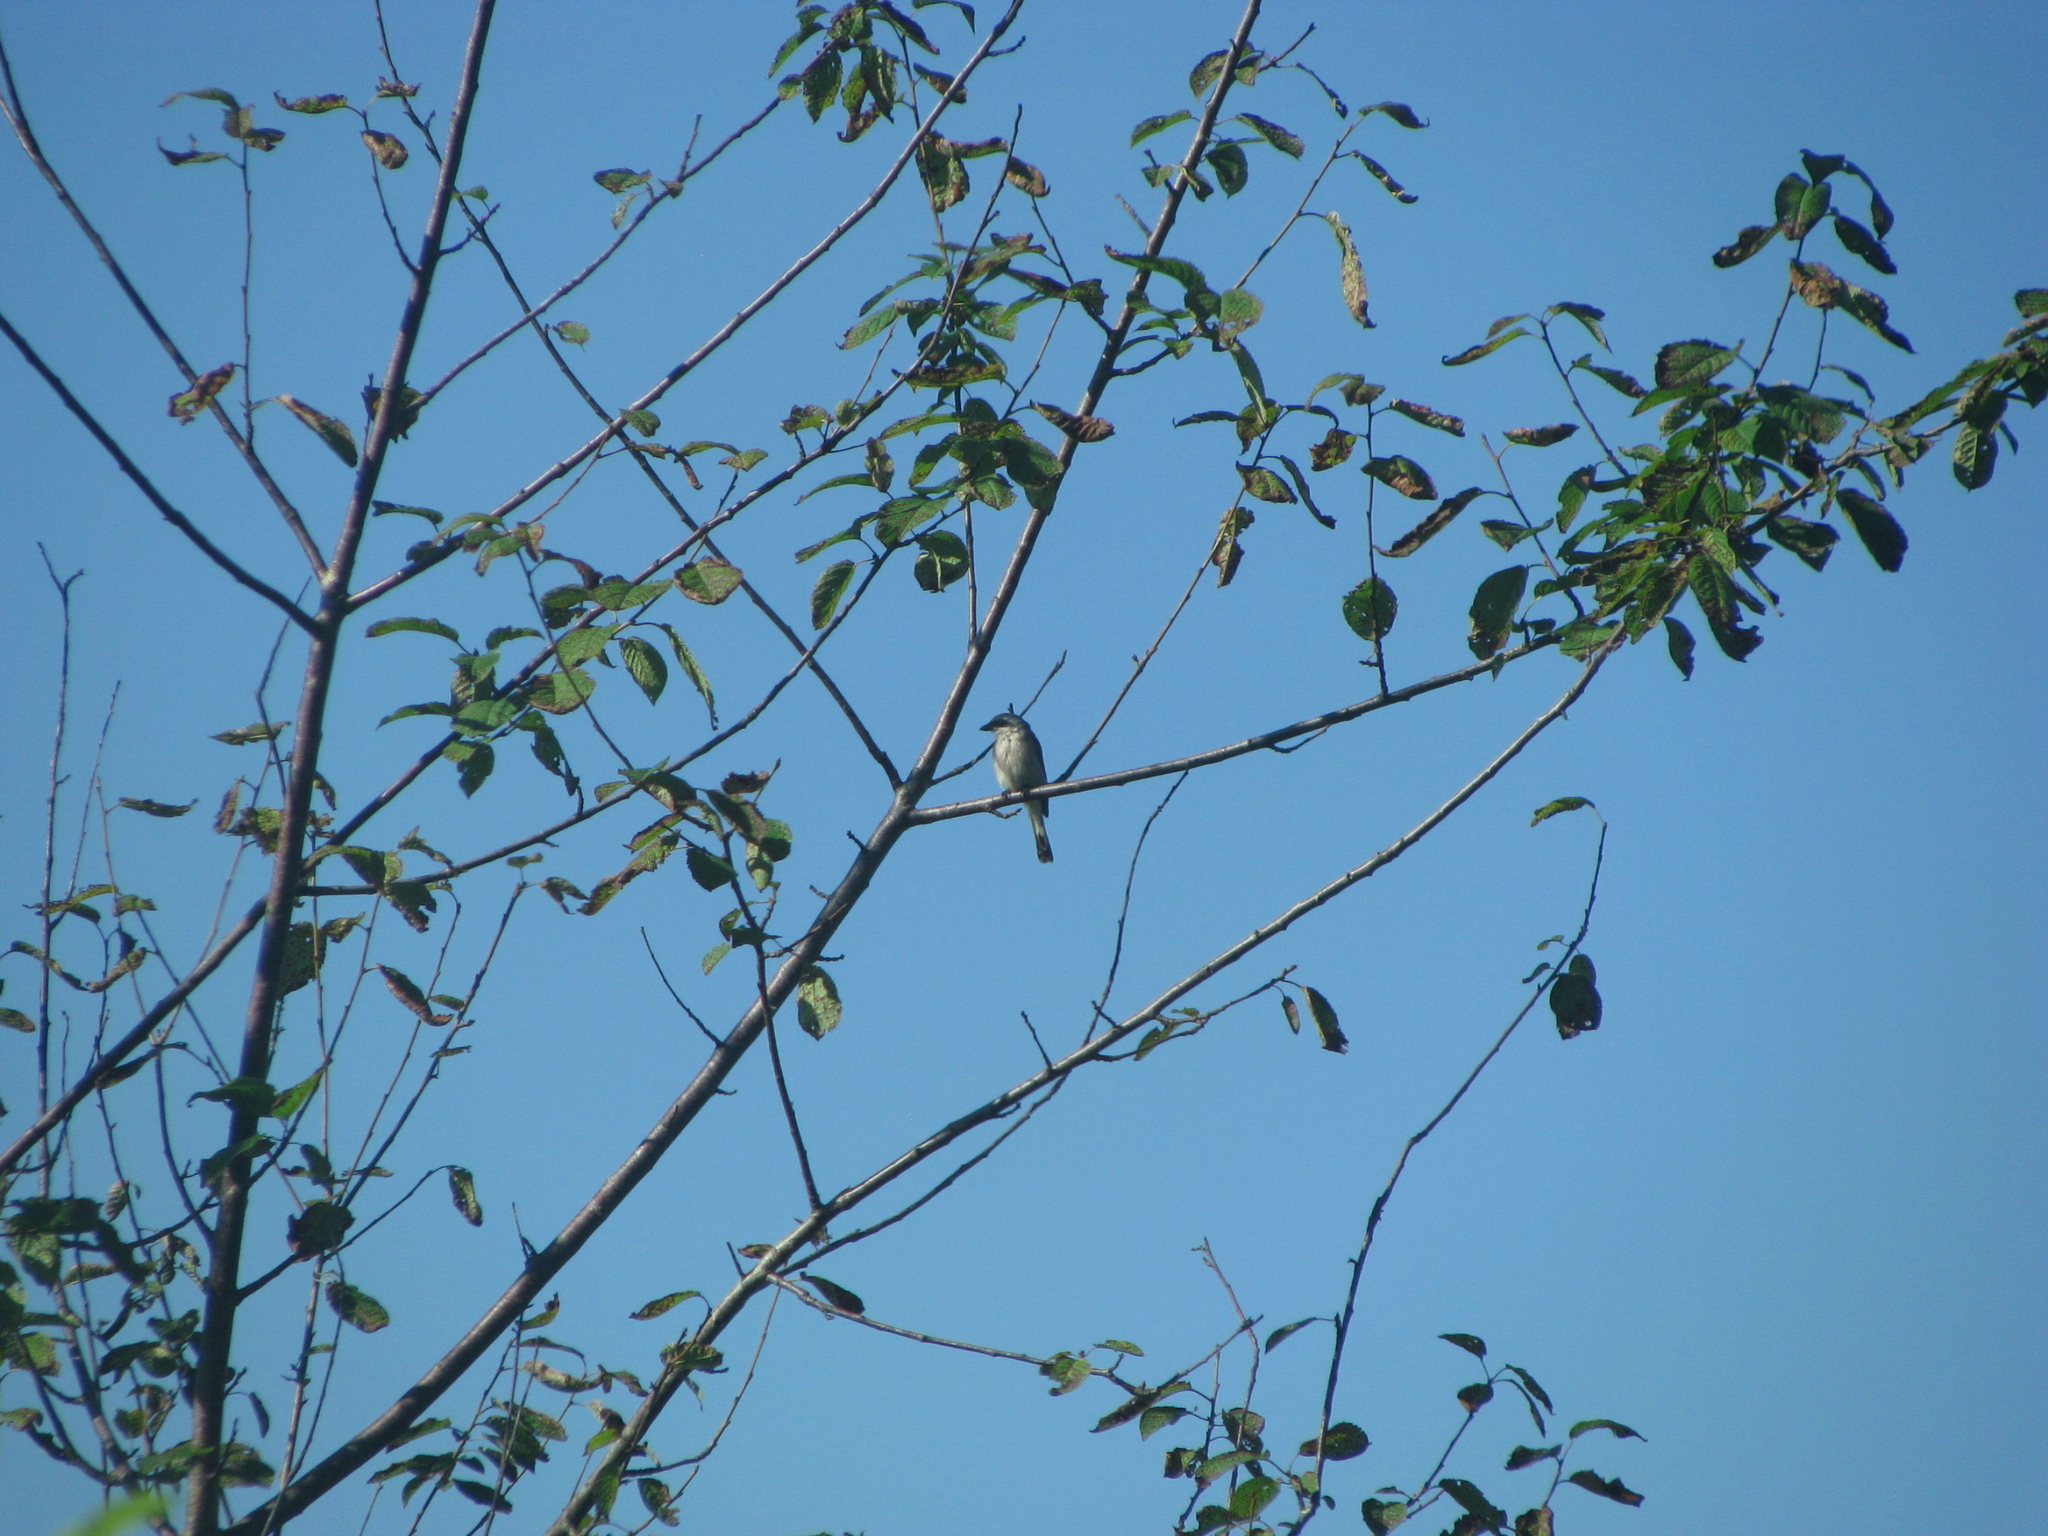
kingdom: Animalia
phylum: Chordata
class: Aves
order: Passeriformes
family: Laniidae
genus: Lanius
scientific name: Lanius excubitor
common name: Great grey shrike
